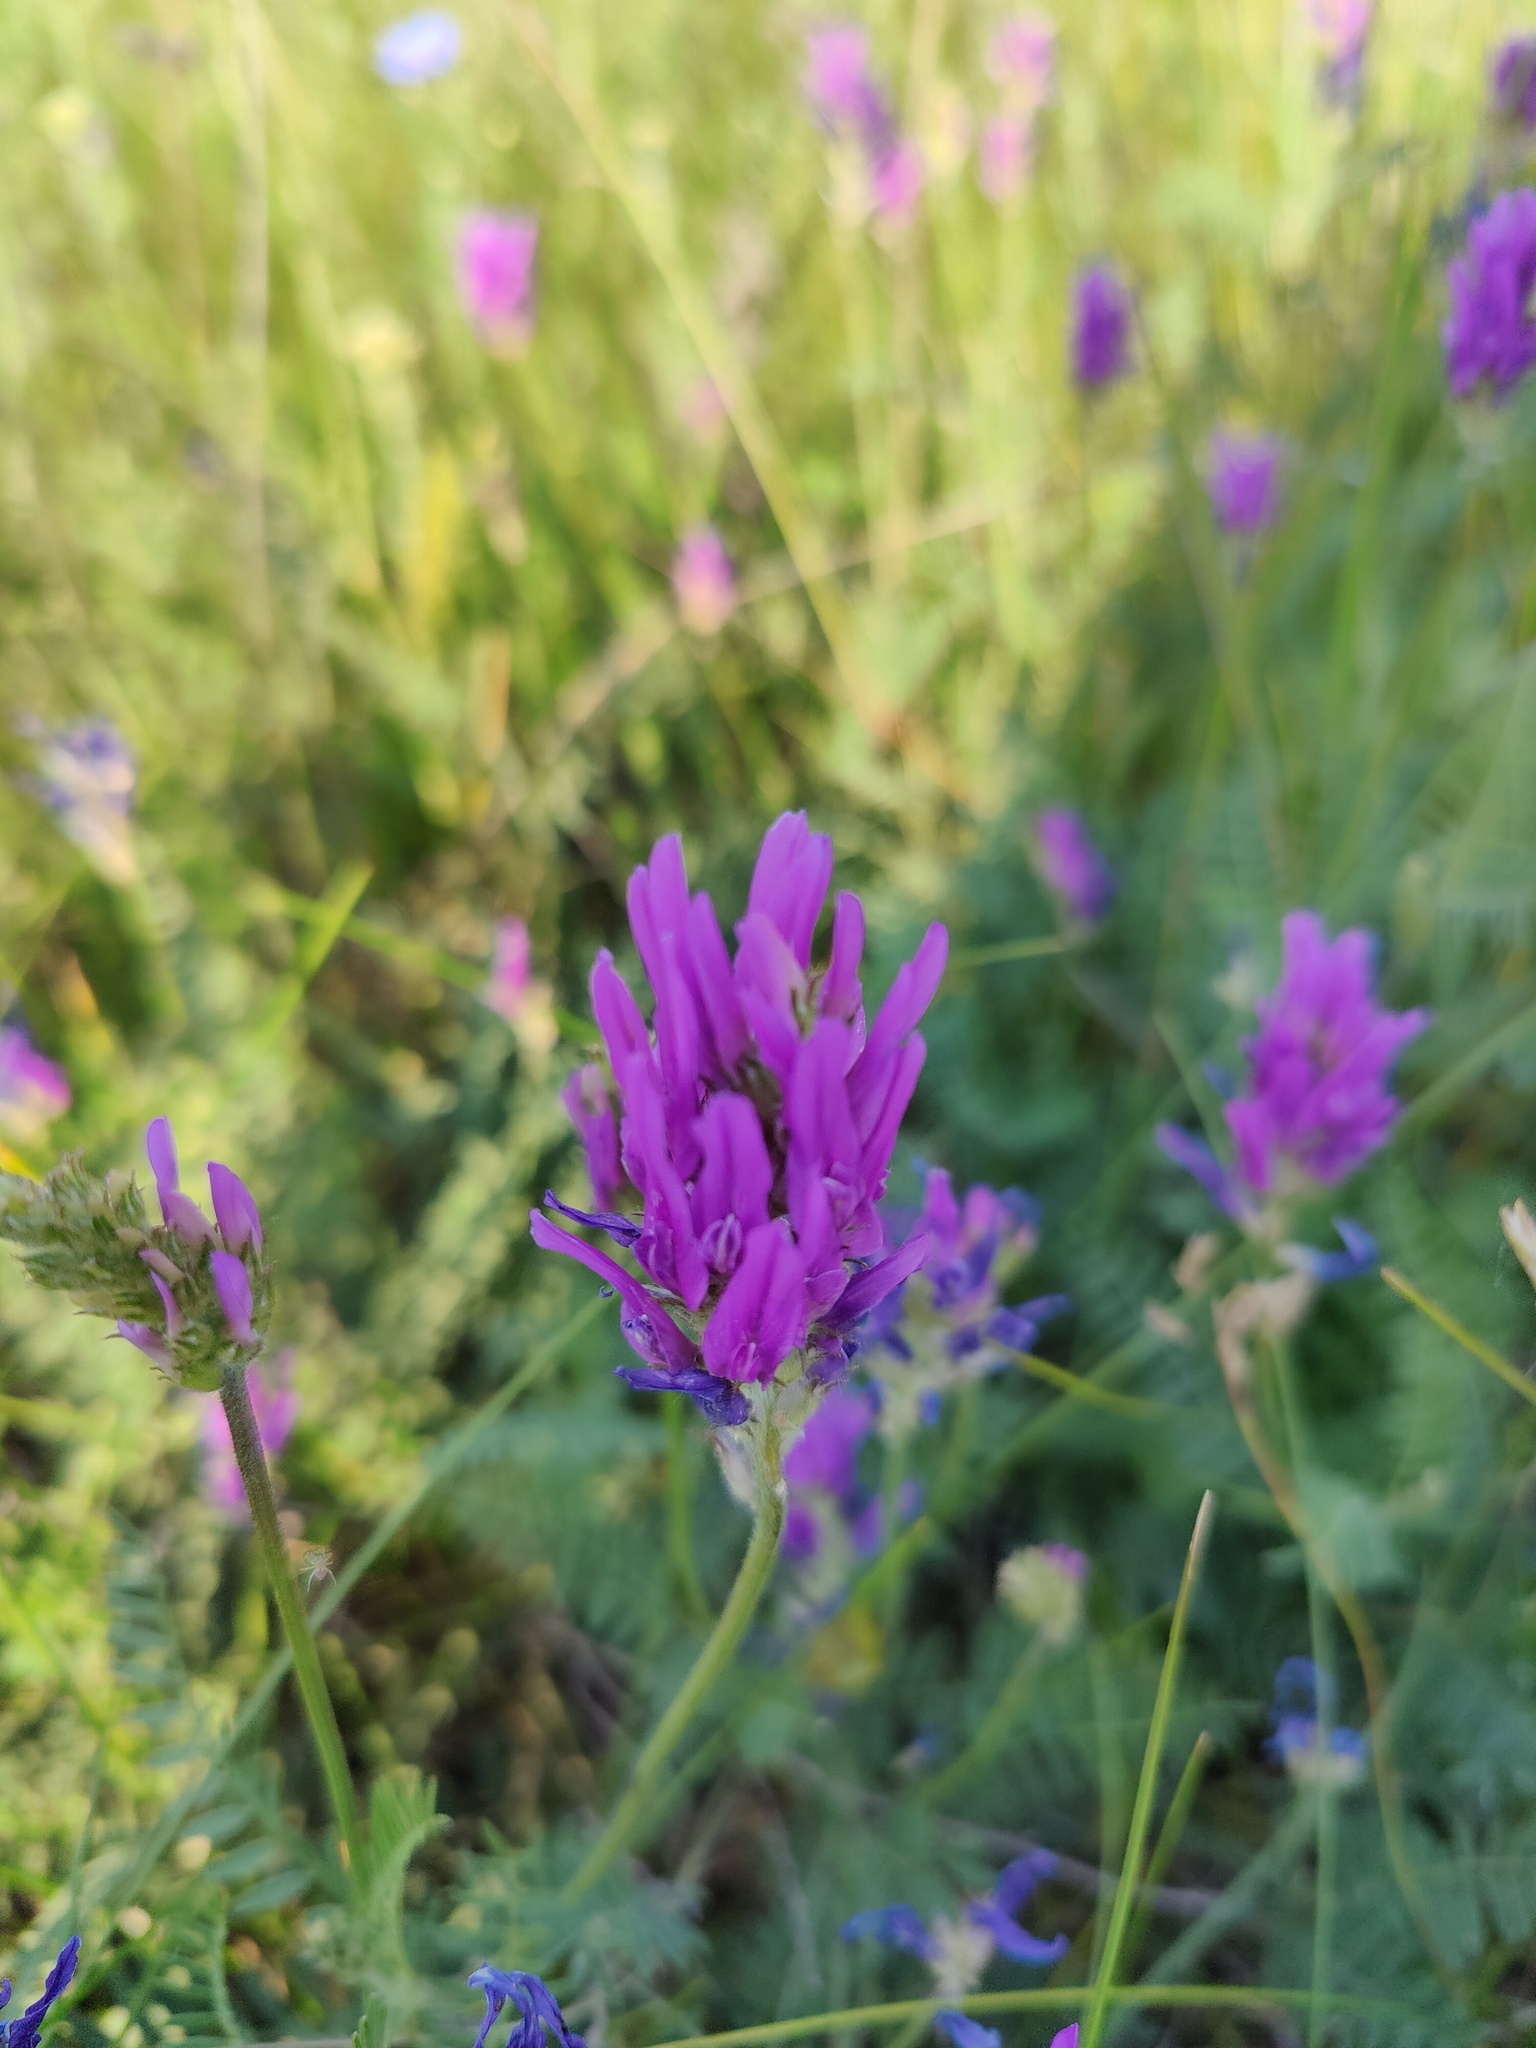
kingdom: Plantae
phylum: Tracheophyta
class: Magnoliopsida
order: Fabales
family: Fabaceae
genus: Astragalus
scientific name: Astragalus onobrychis
